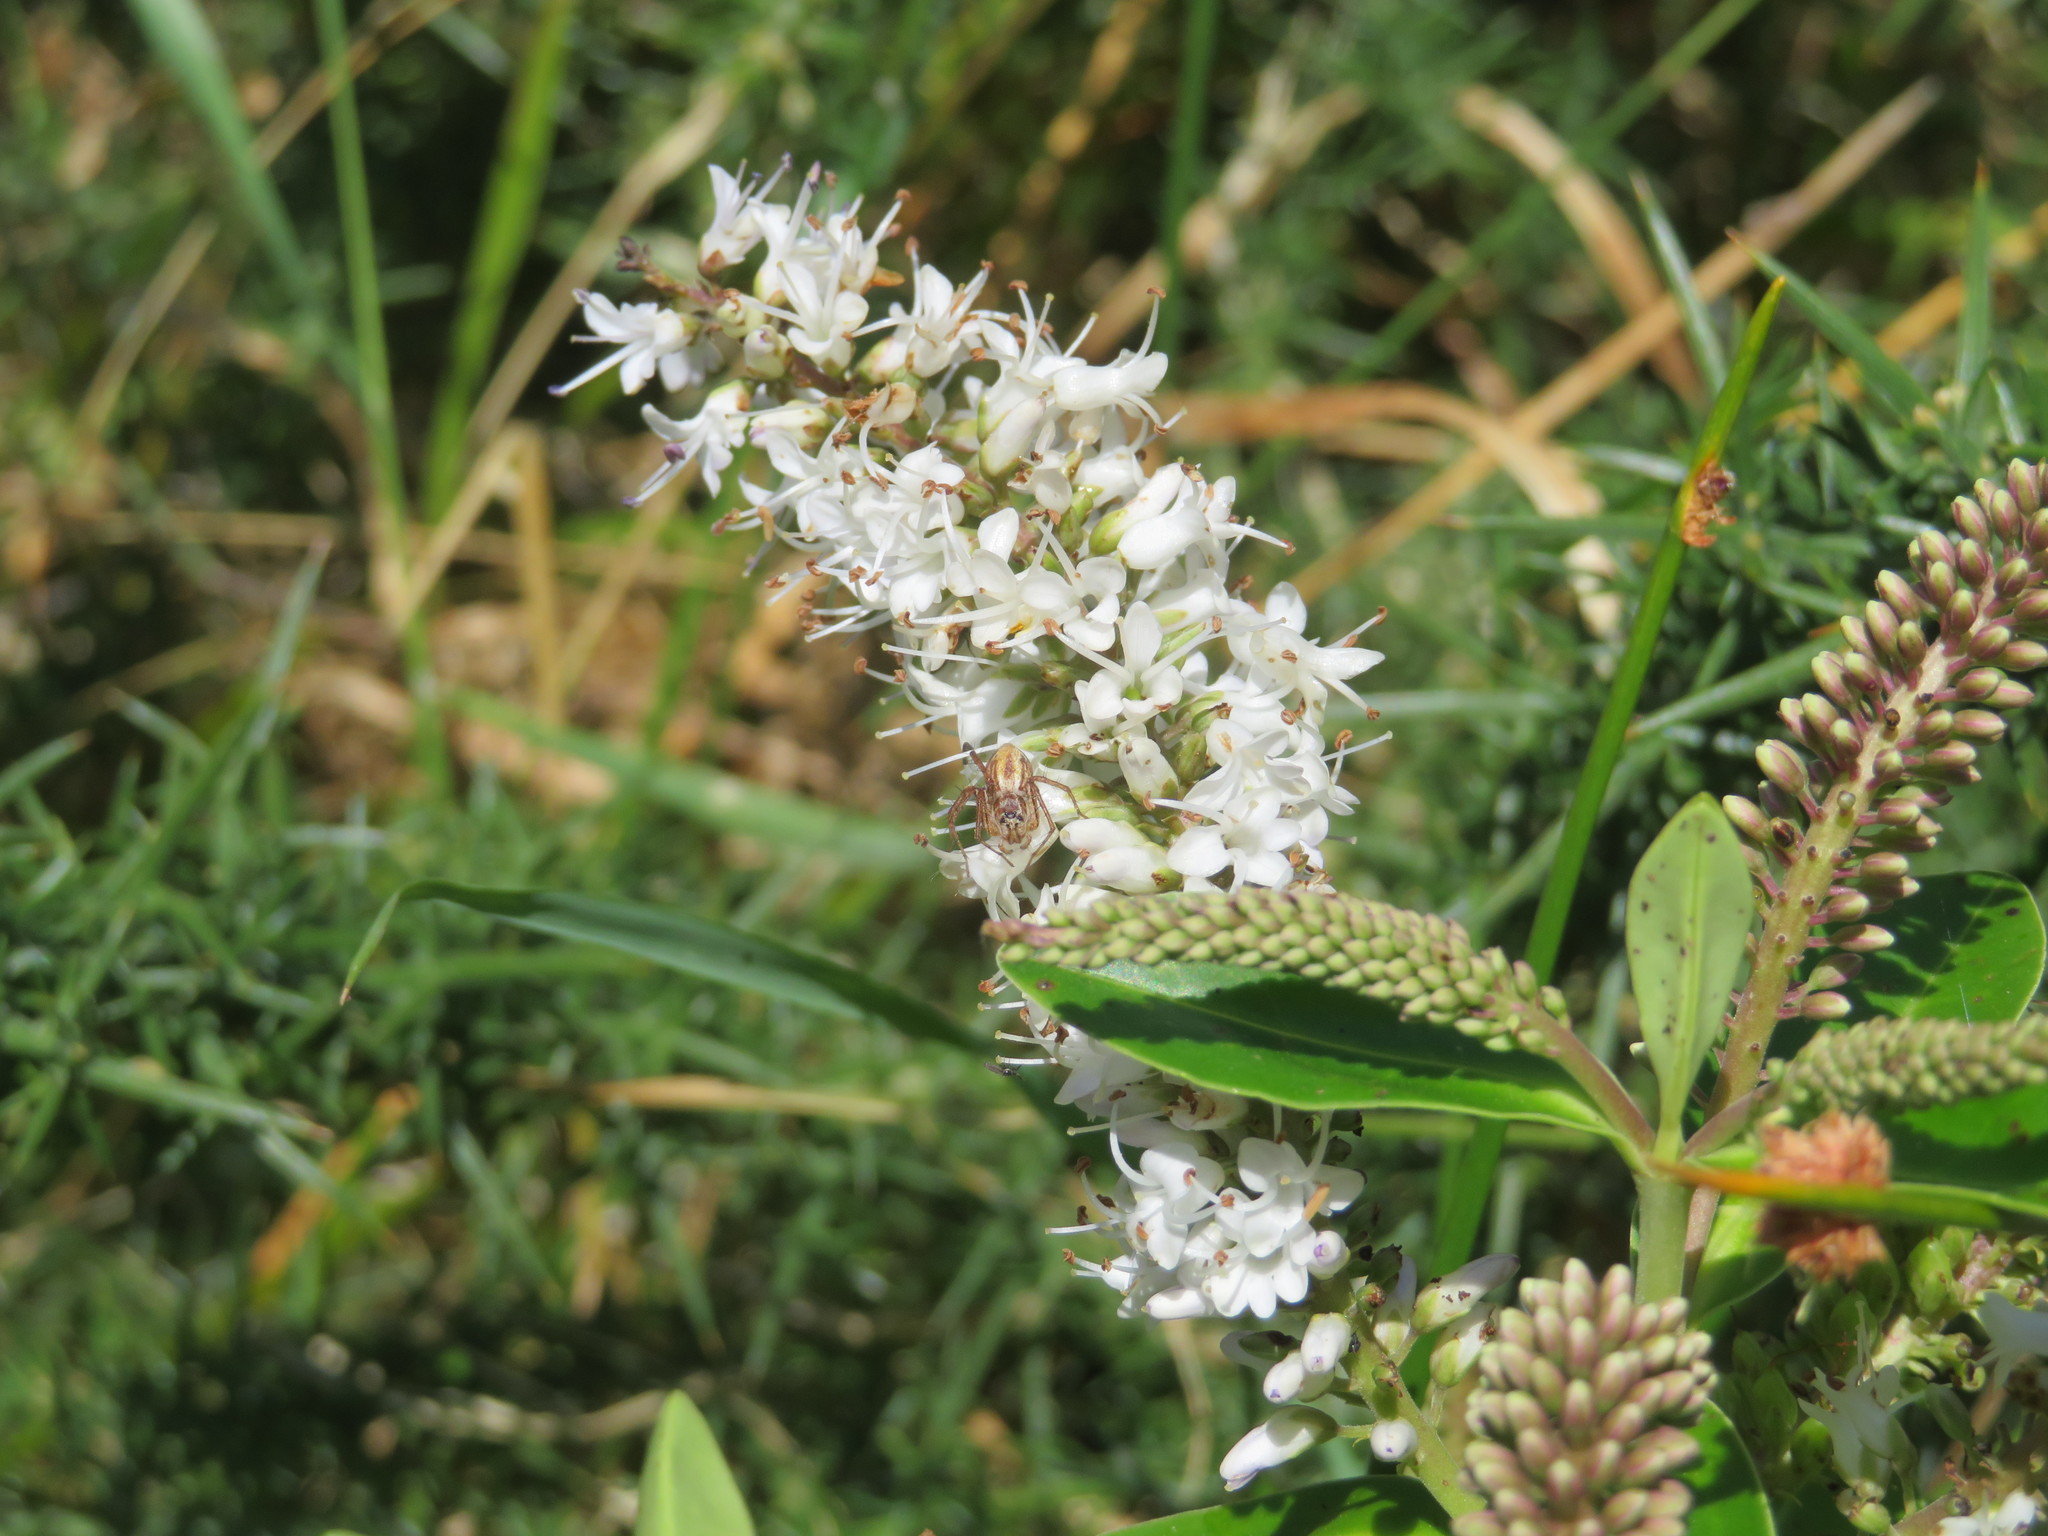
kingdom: Animalia
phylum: Arthropoda
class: Arachnida
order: Araneae
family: Oxyopidae
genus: Oxyopes
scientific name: Oxyopes gracilipes
